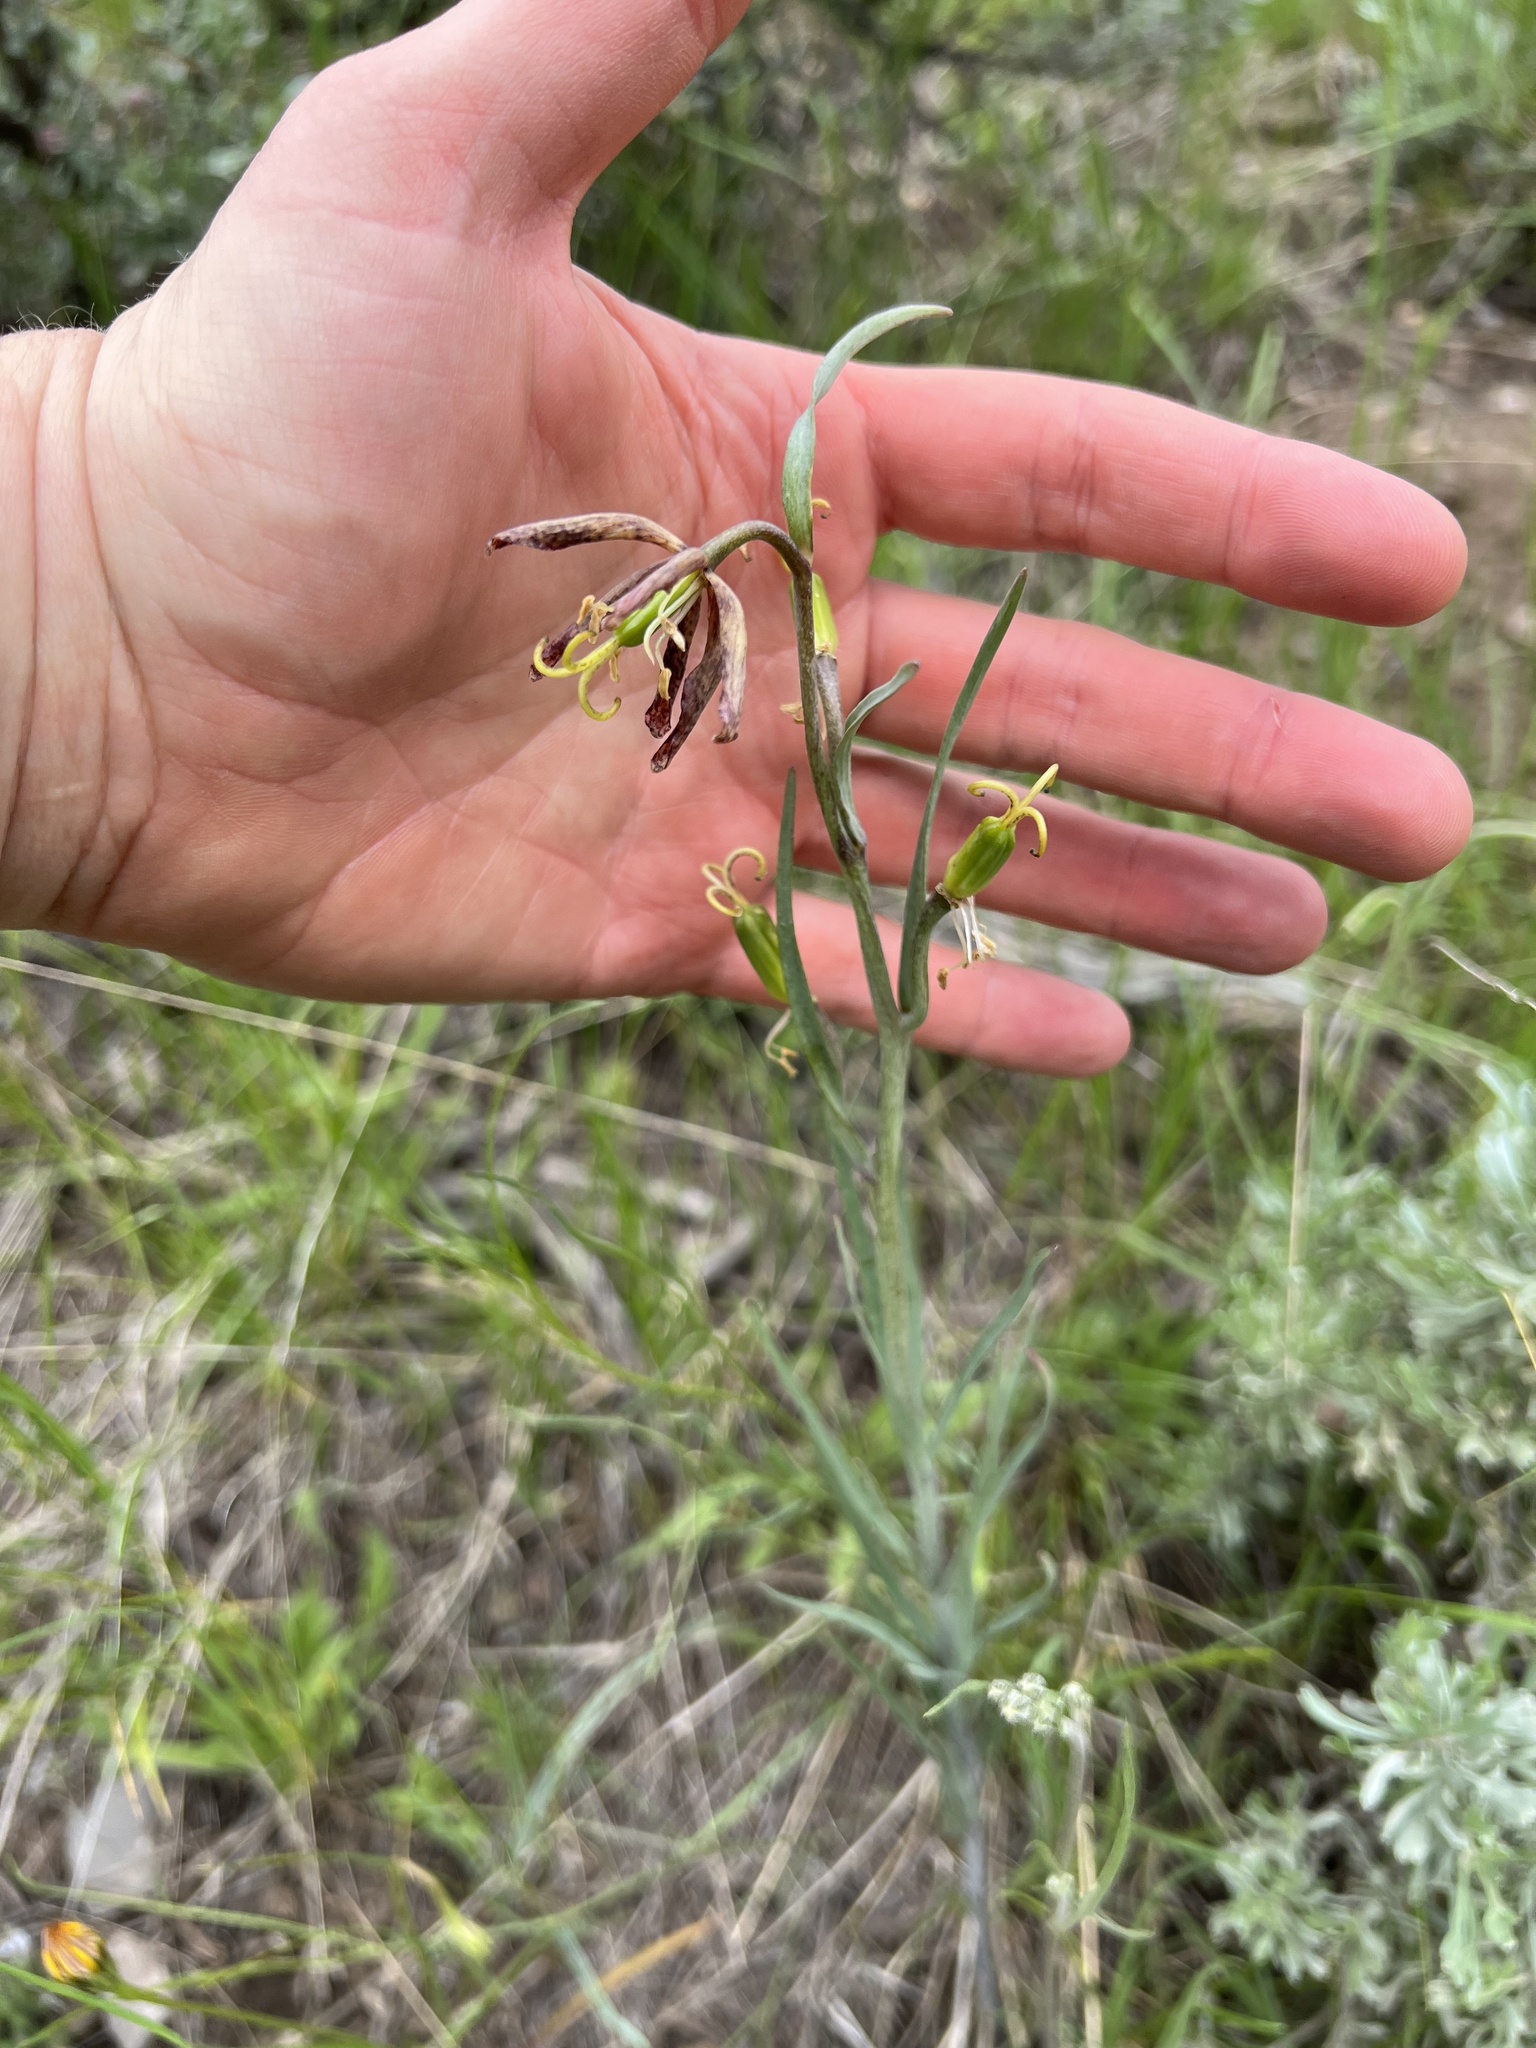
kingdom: Plantae
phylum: Tracheophyta
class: Liliopsida
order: Liliales
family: Liliaceae
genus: Fritillaria
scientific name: Fritillaria atropurpurea
